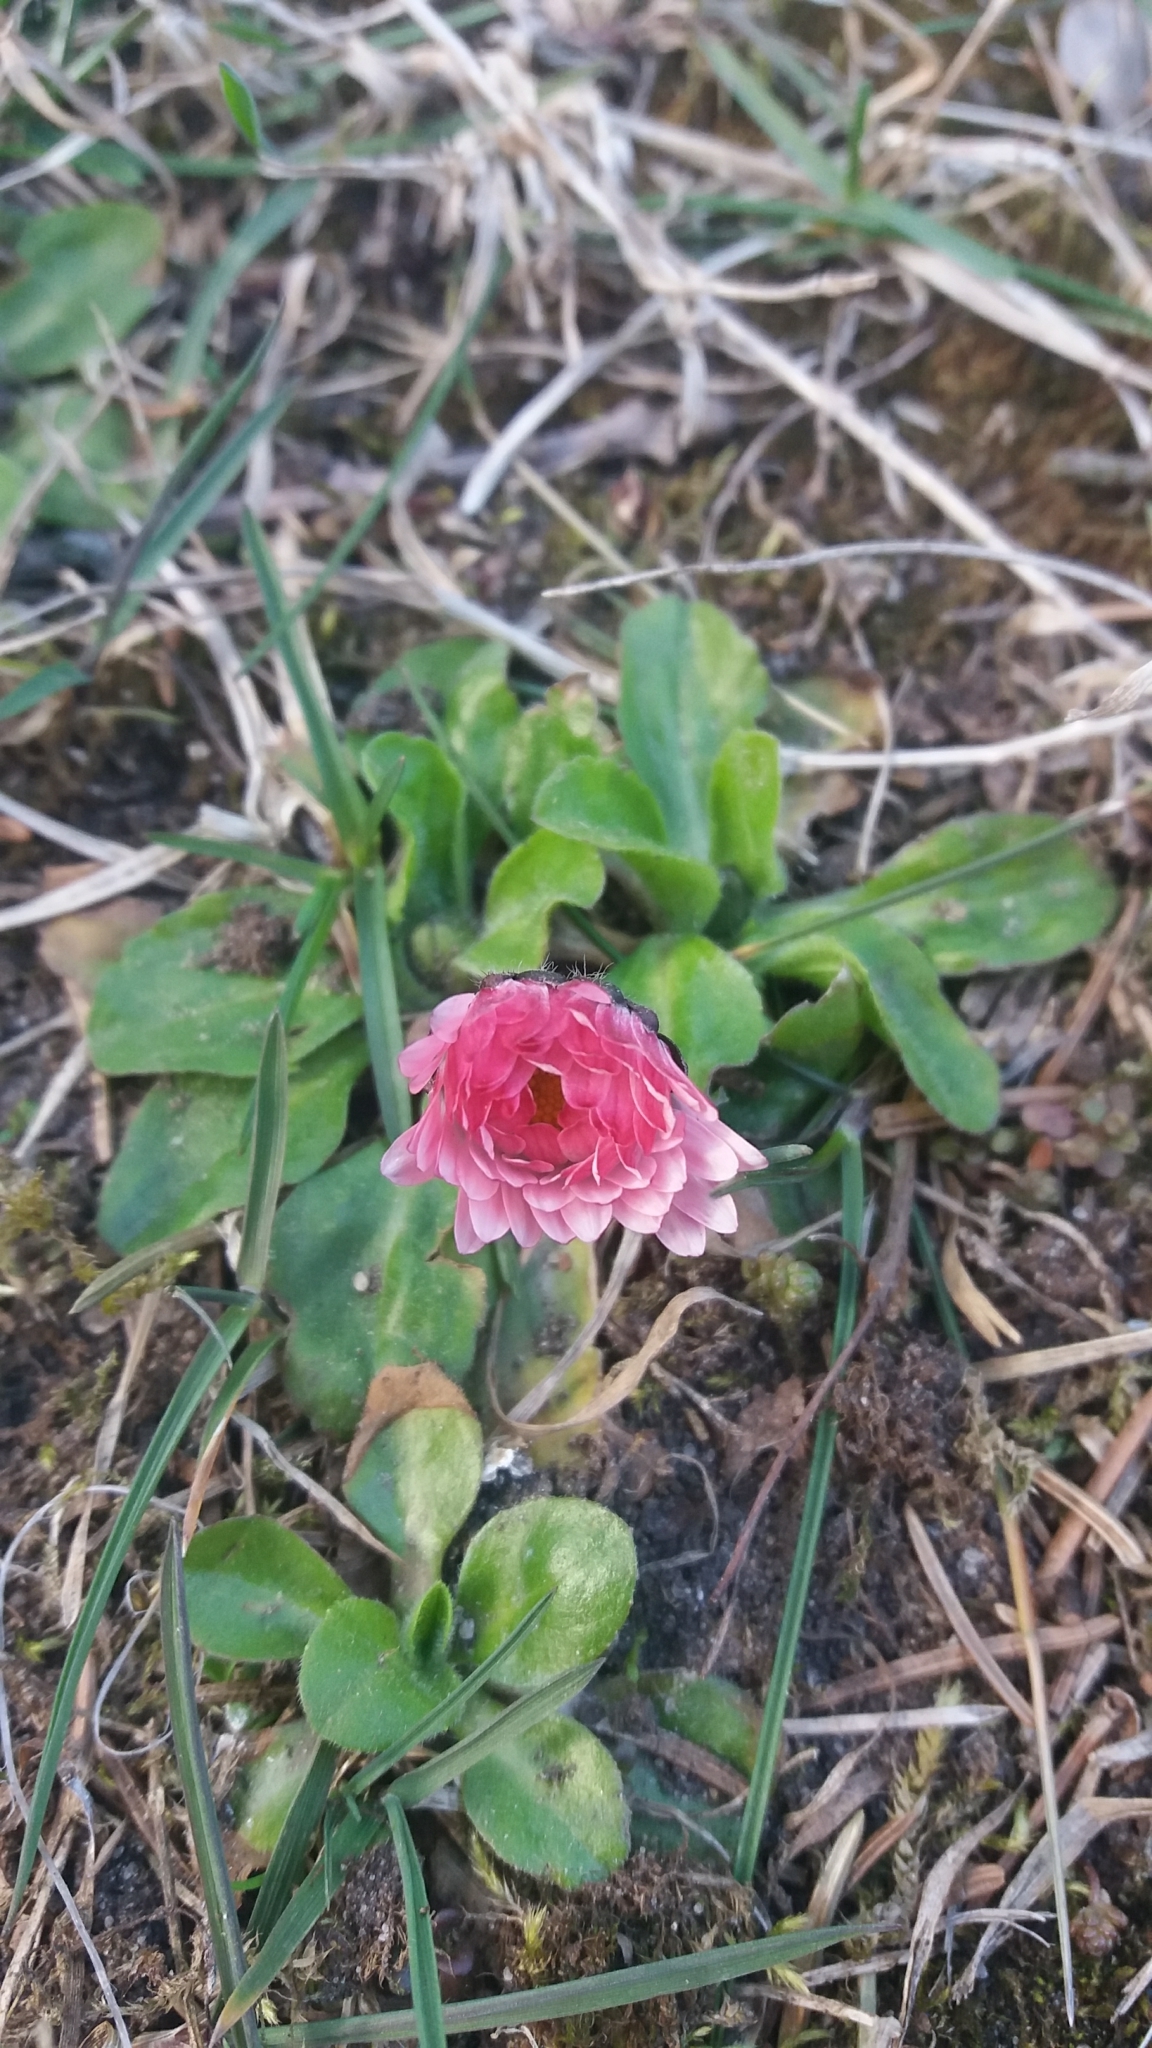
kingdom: Plantae
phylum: Tracheophyta
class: Magnoliopsida
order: Asterales
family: Asteraceae
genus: Bellis
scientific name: Bellis perennis
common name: Lawndaisy
